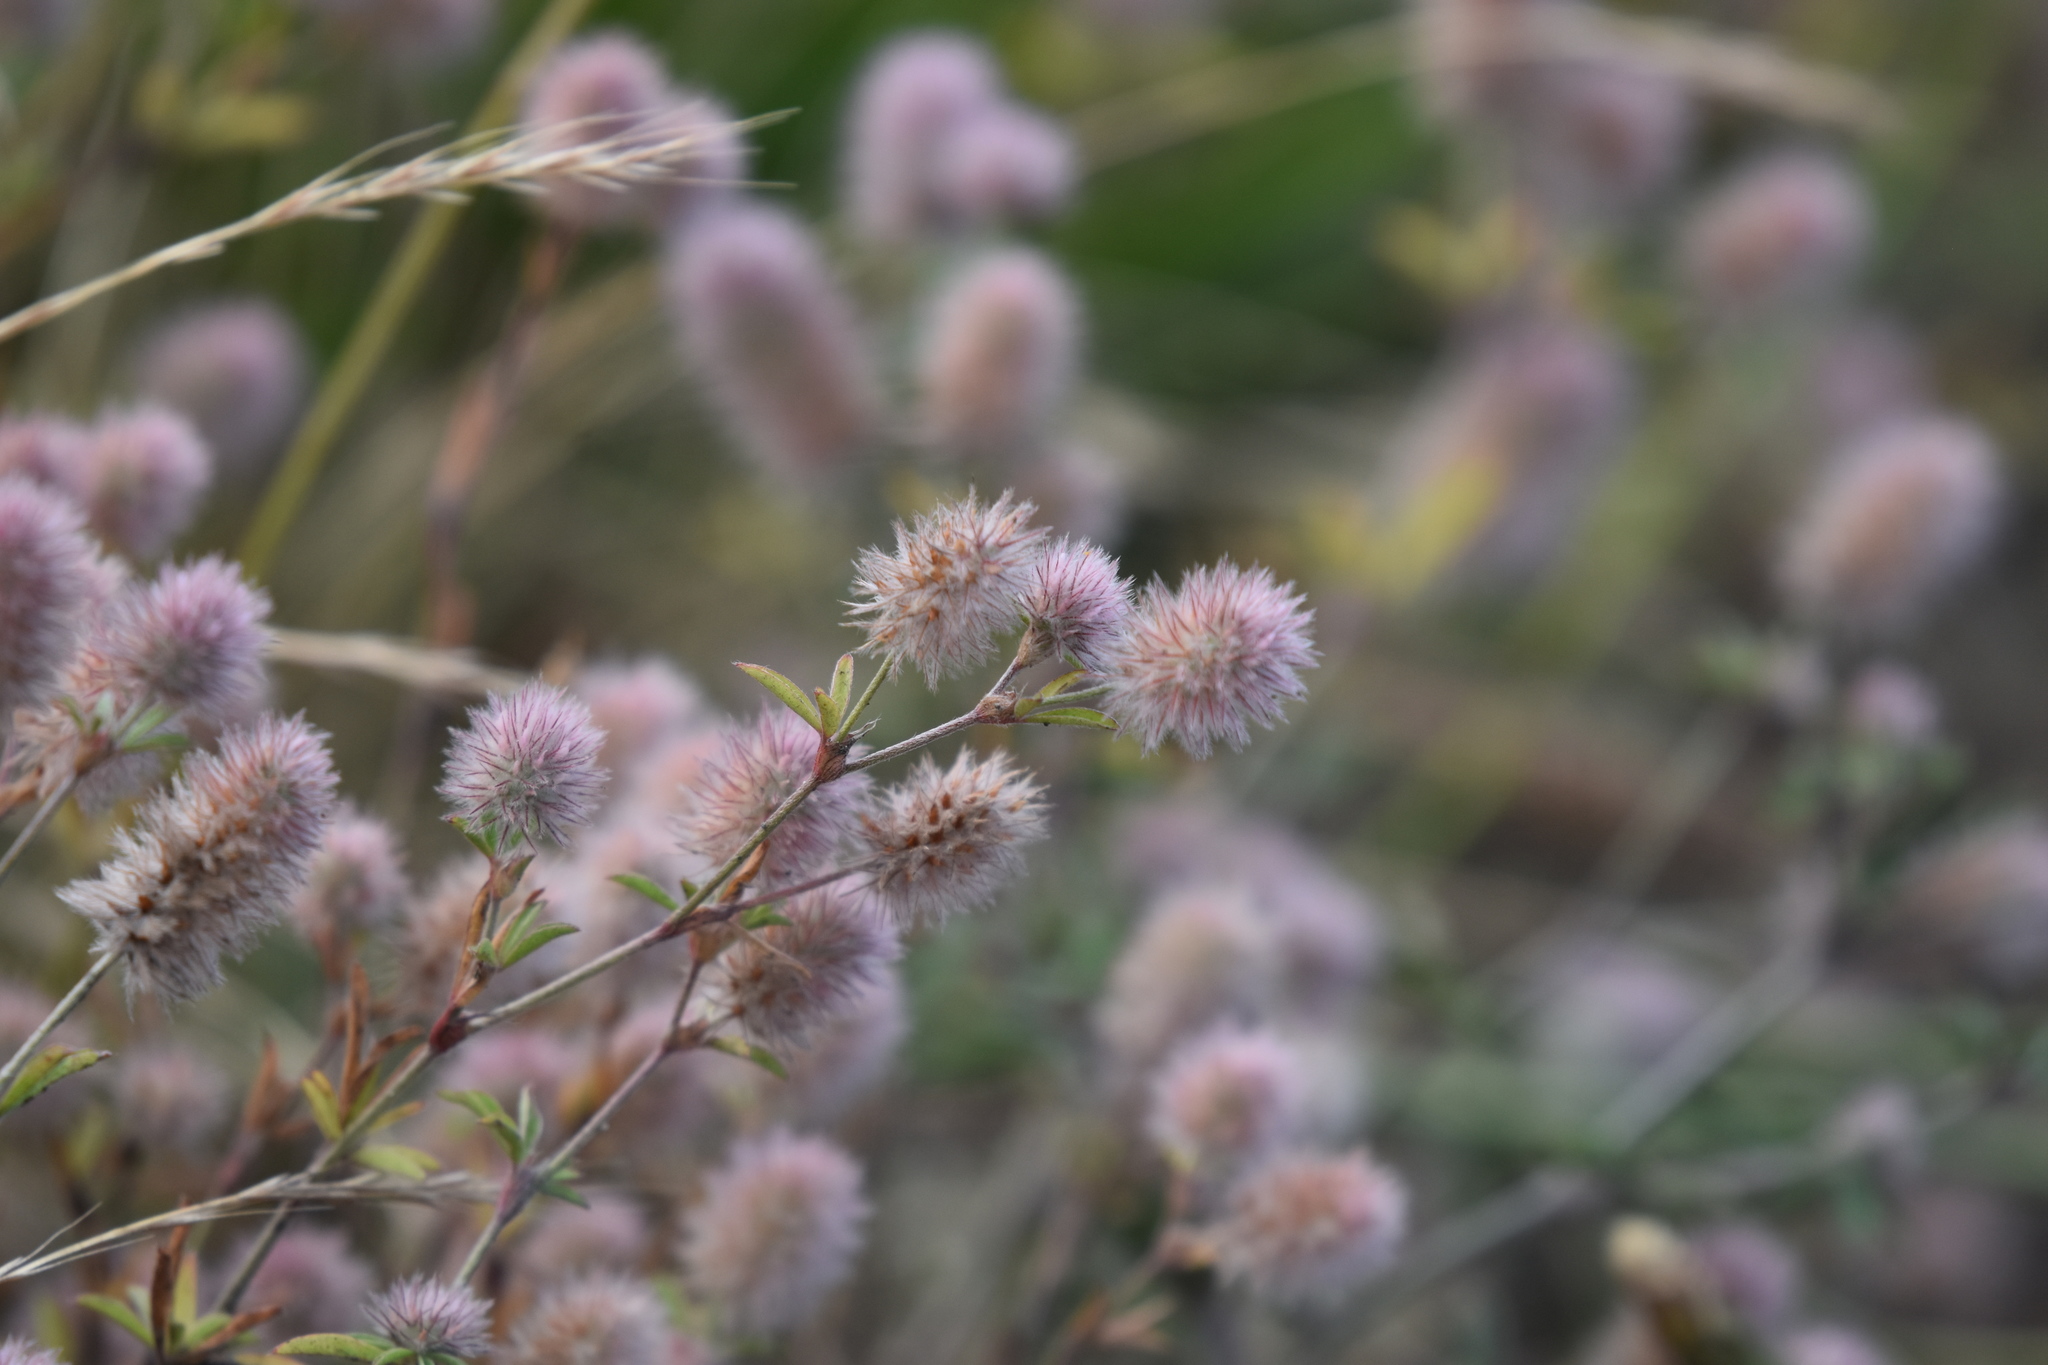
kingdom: Plantae
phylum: Tracheophyta
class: Magnoliopsida
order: Fabales
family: Fabaceae
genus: Trifolium
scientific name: Trifolium arvense
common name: Hare's-foot clover
